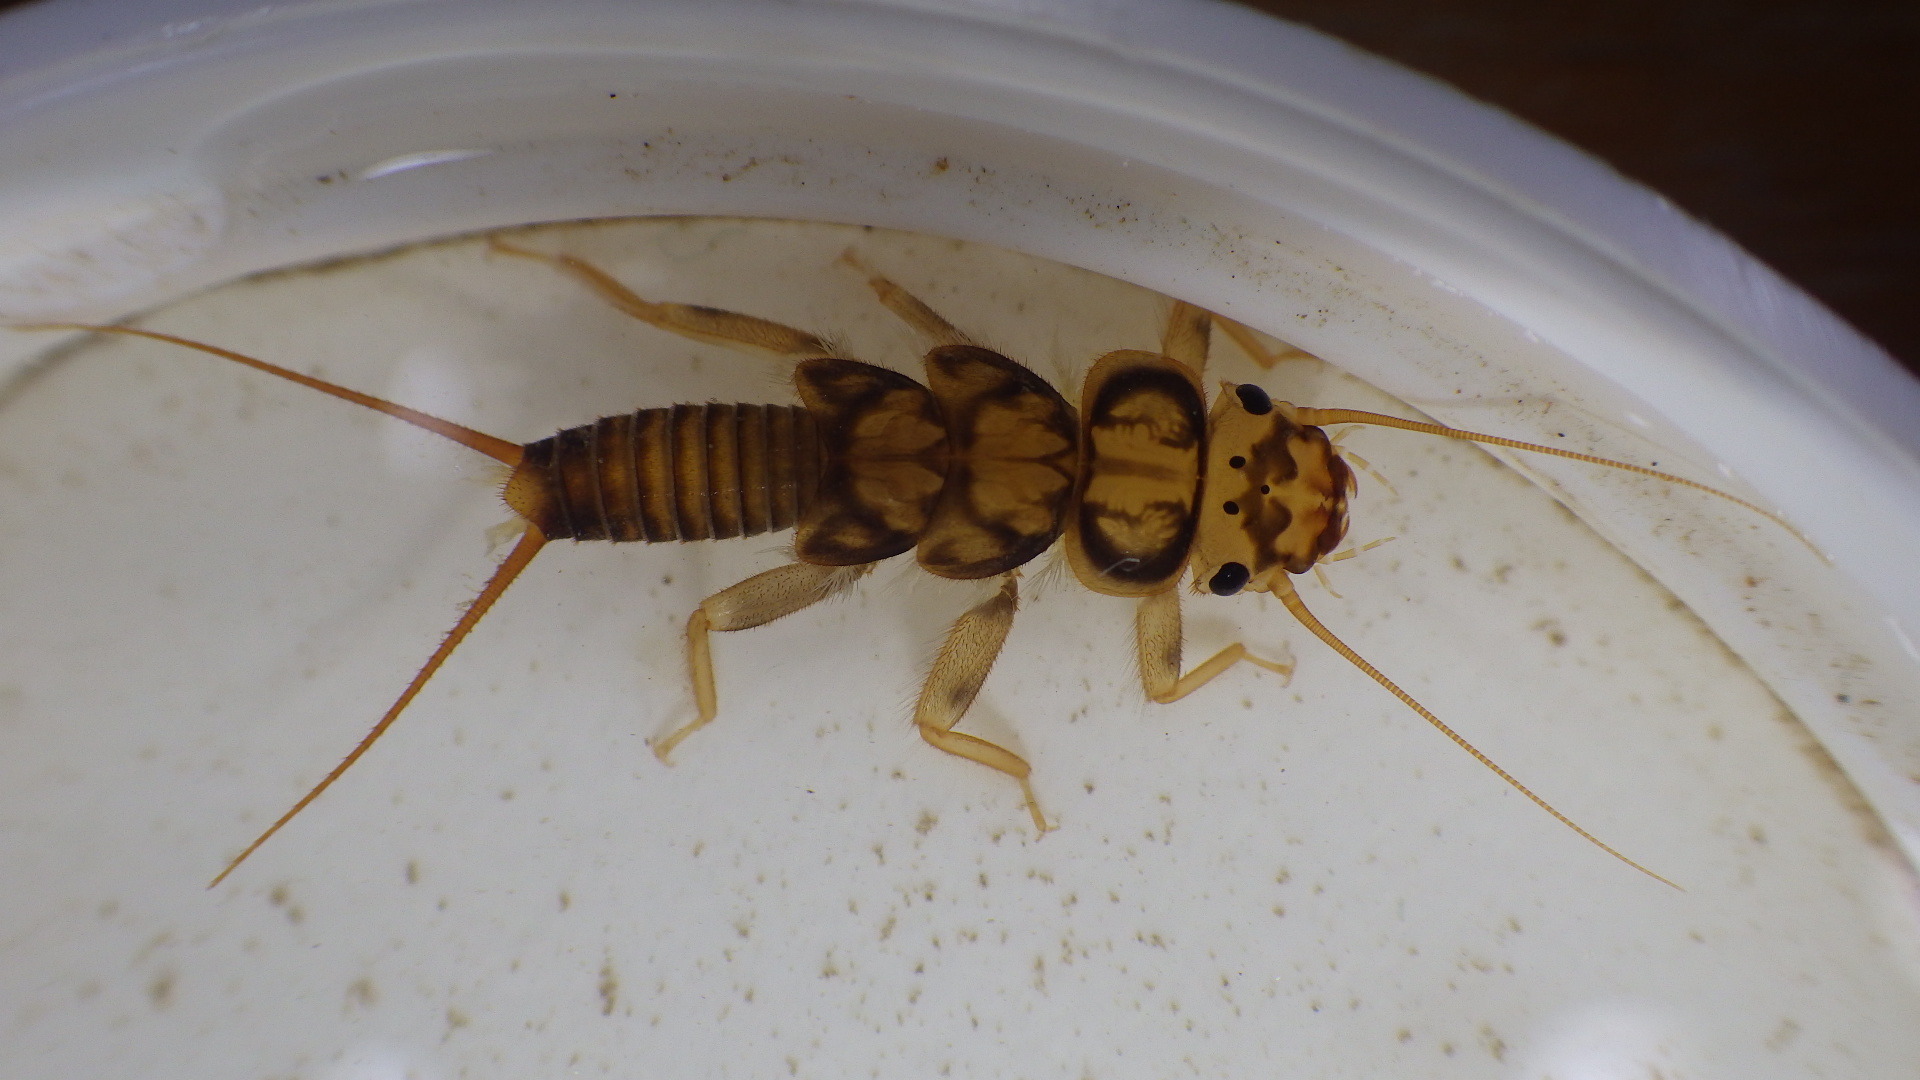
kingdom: Animalia
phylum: Arthropoda
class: Insecta
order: Plecoptera
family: Perlidae
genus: Eccoptura
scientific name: Eccoptura xanthenes
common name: Yellow stone
